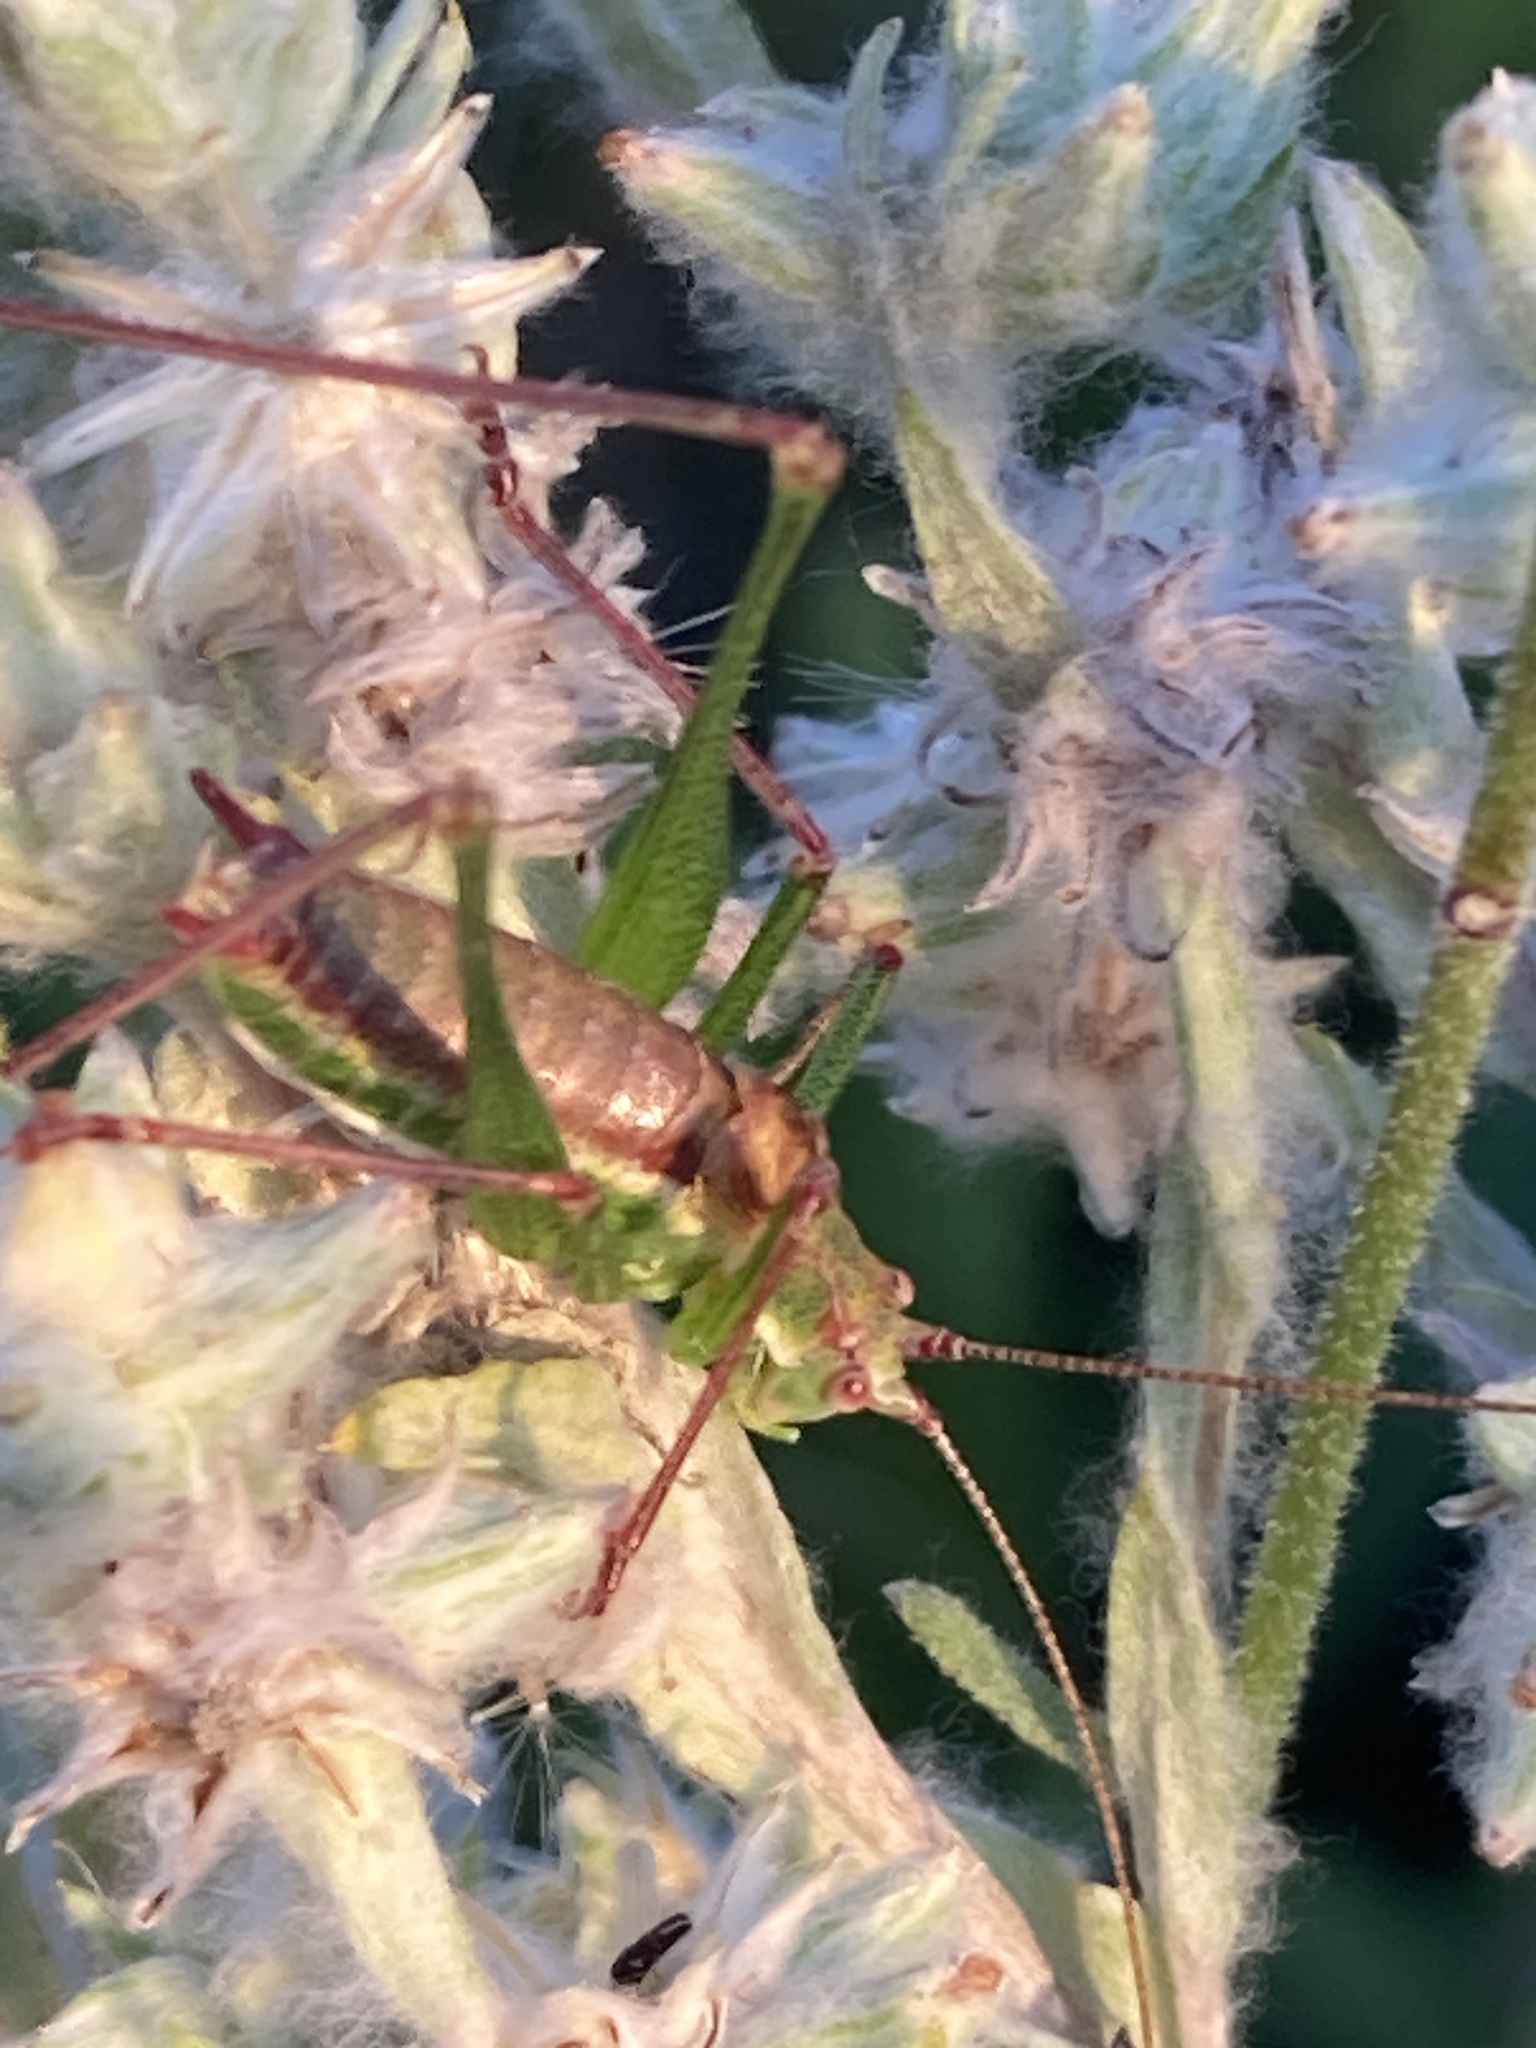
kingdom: Animalia
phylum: Arthropoda
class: Insecta
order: Orthoptera
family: Tettigoniidae
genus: Leptophyes
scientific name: Leptophyes albovittata
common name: Striped bush-cricket
